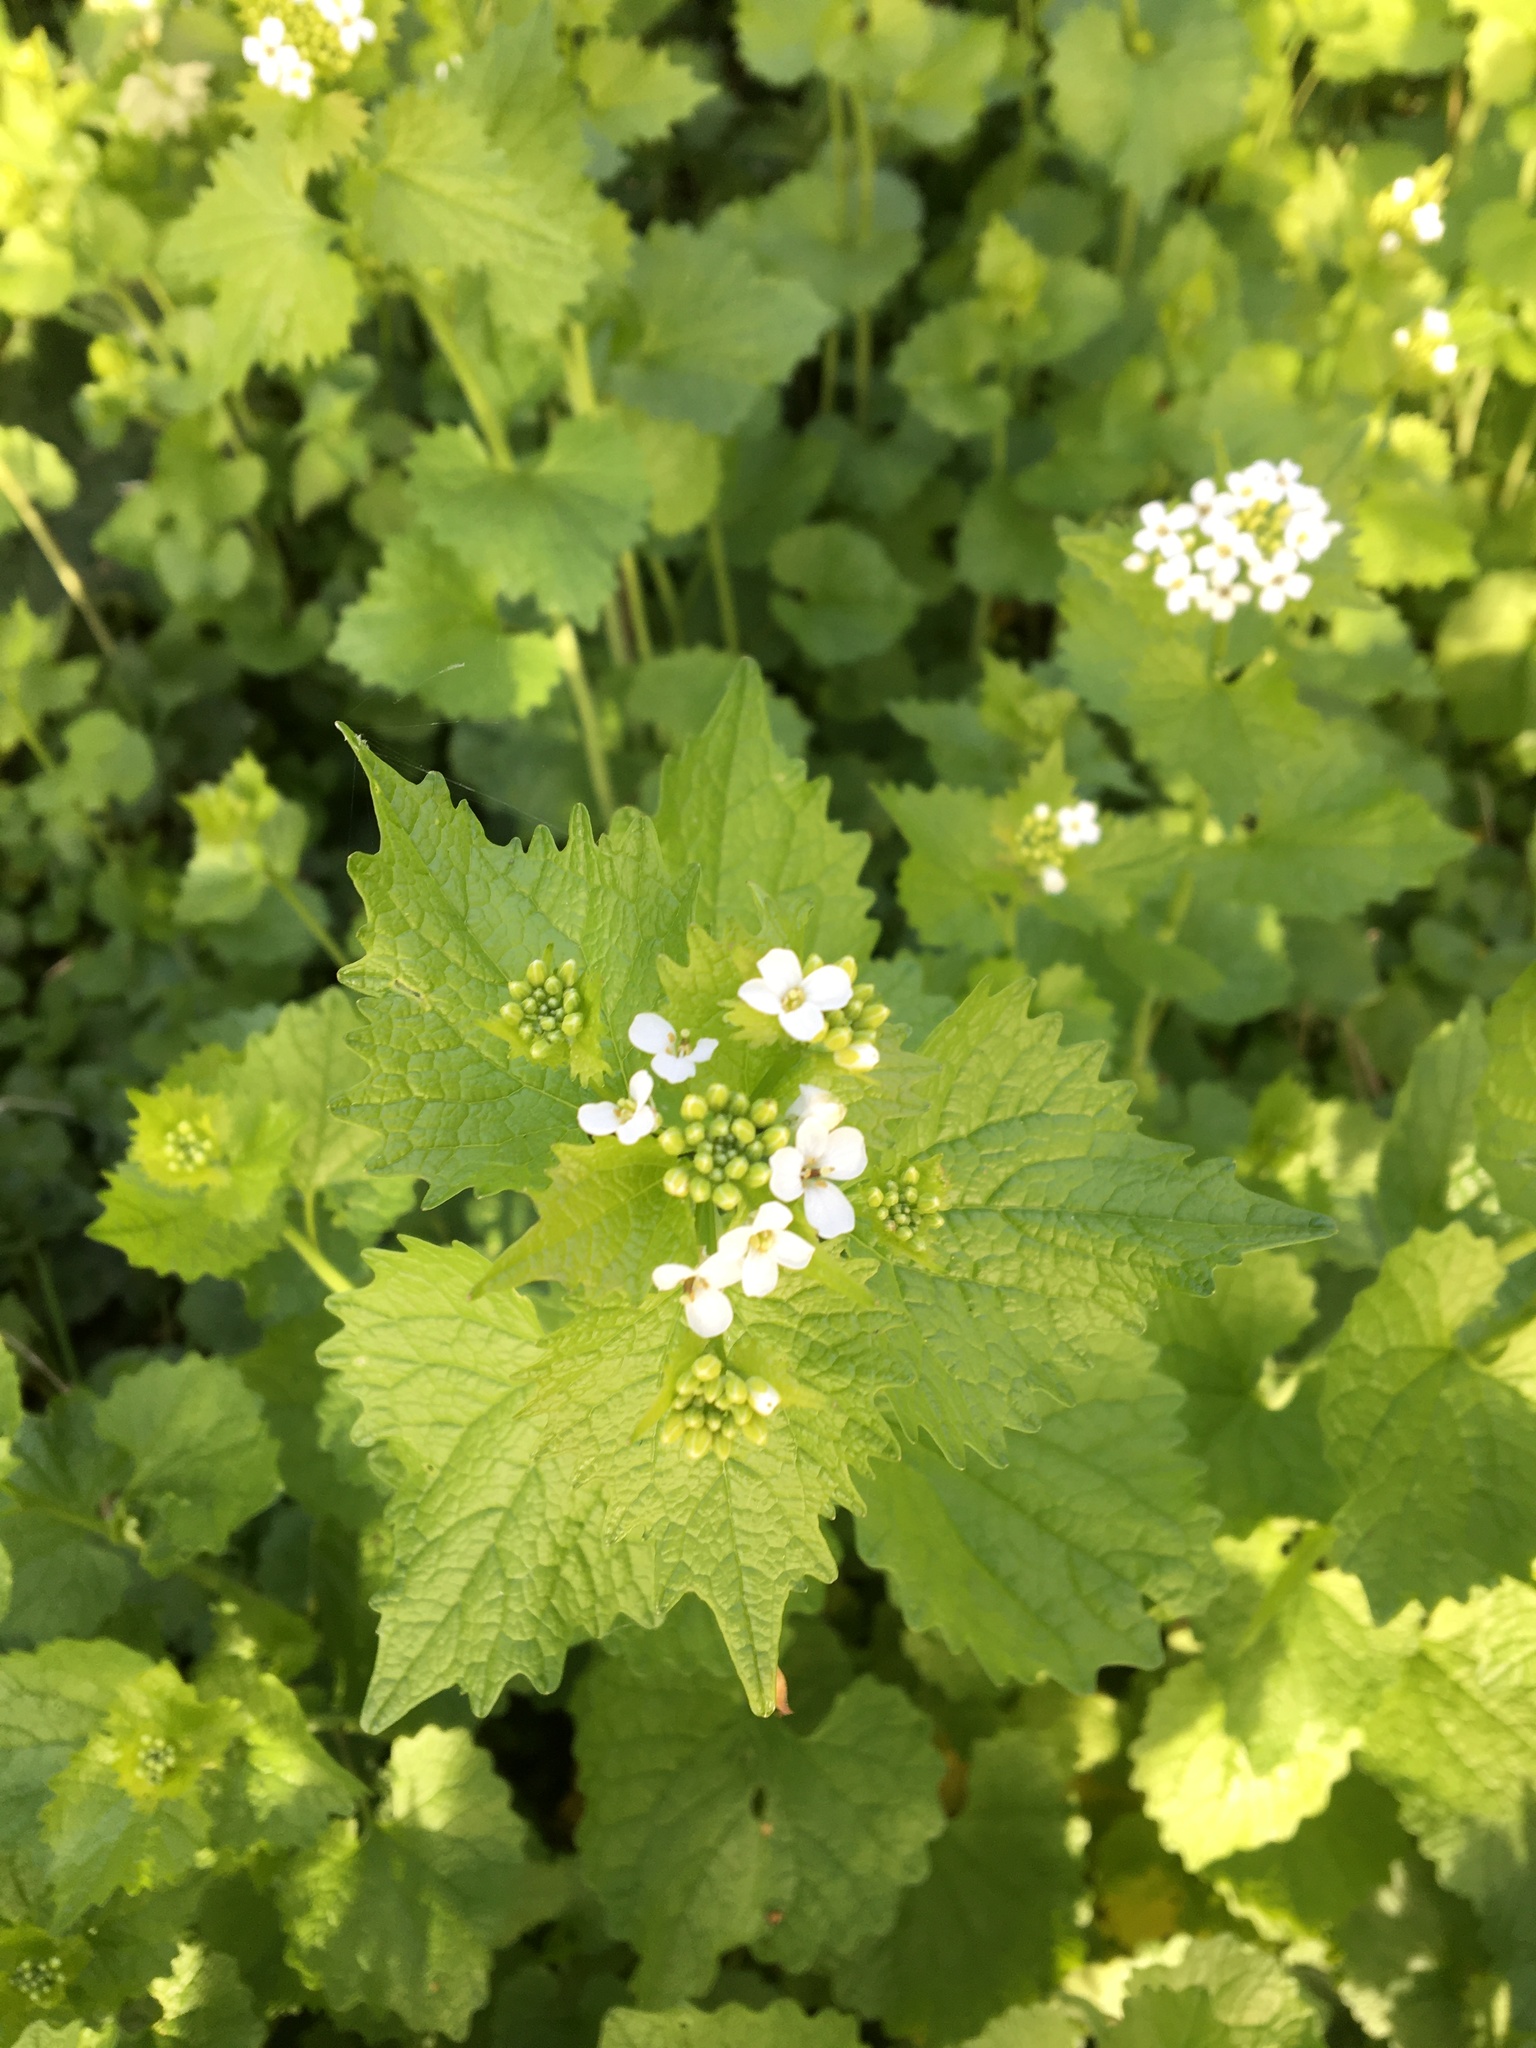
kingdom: Plantae
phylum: Tracheophyta
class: Magnoliopsida
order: Brassicales
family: Brassicaceae
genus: Alliaria
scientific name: Alliaria petiolata
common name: Garlic mustard
